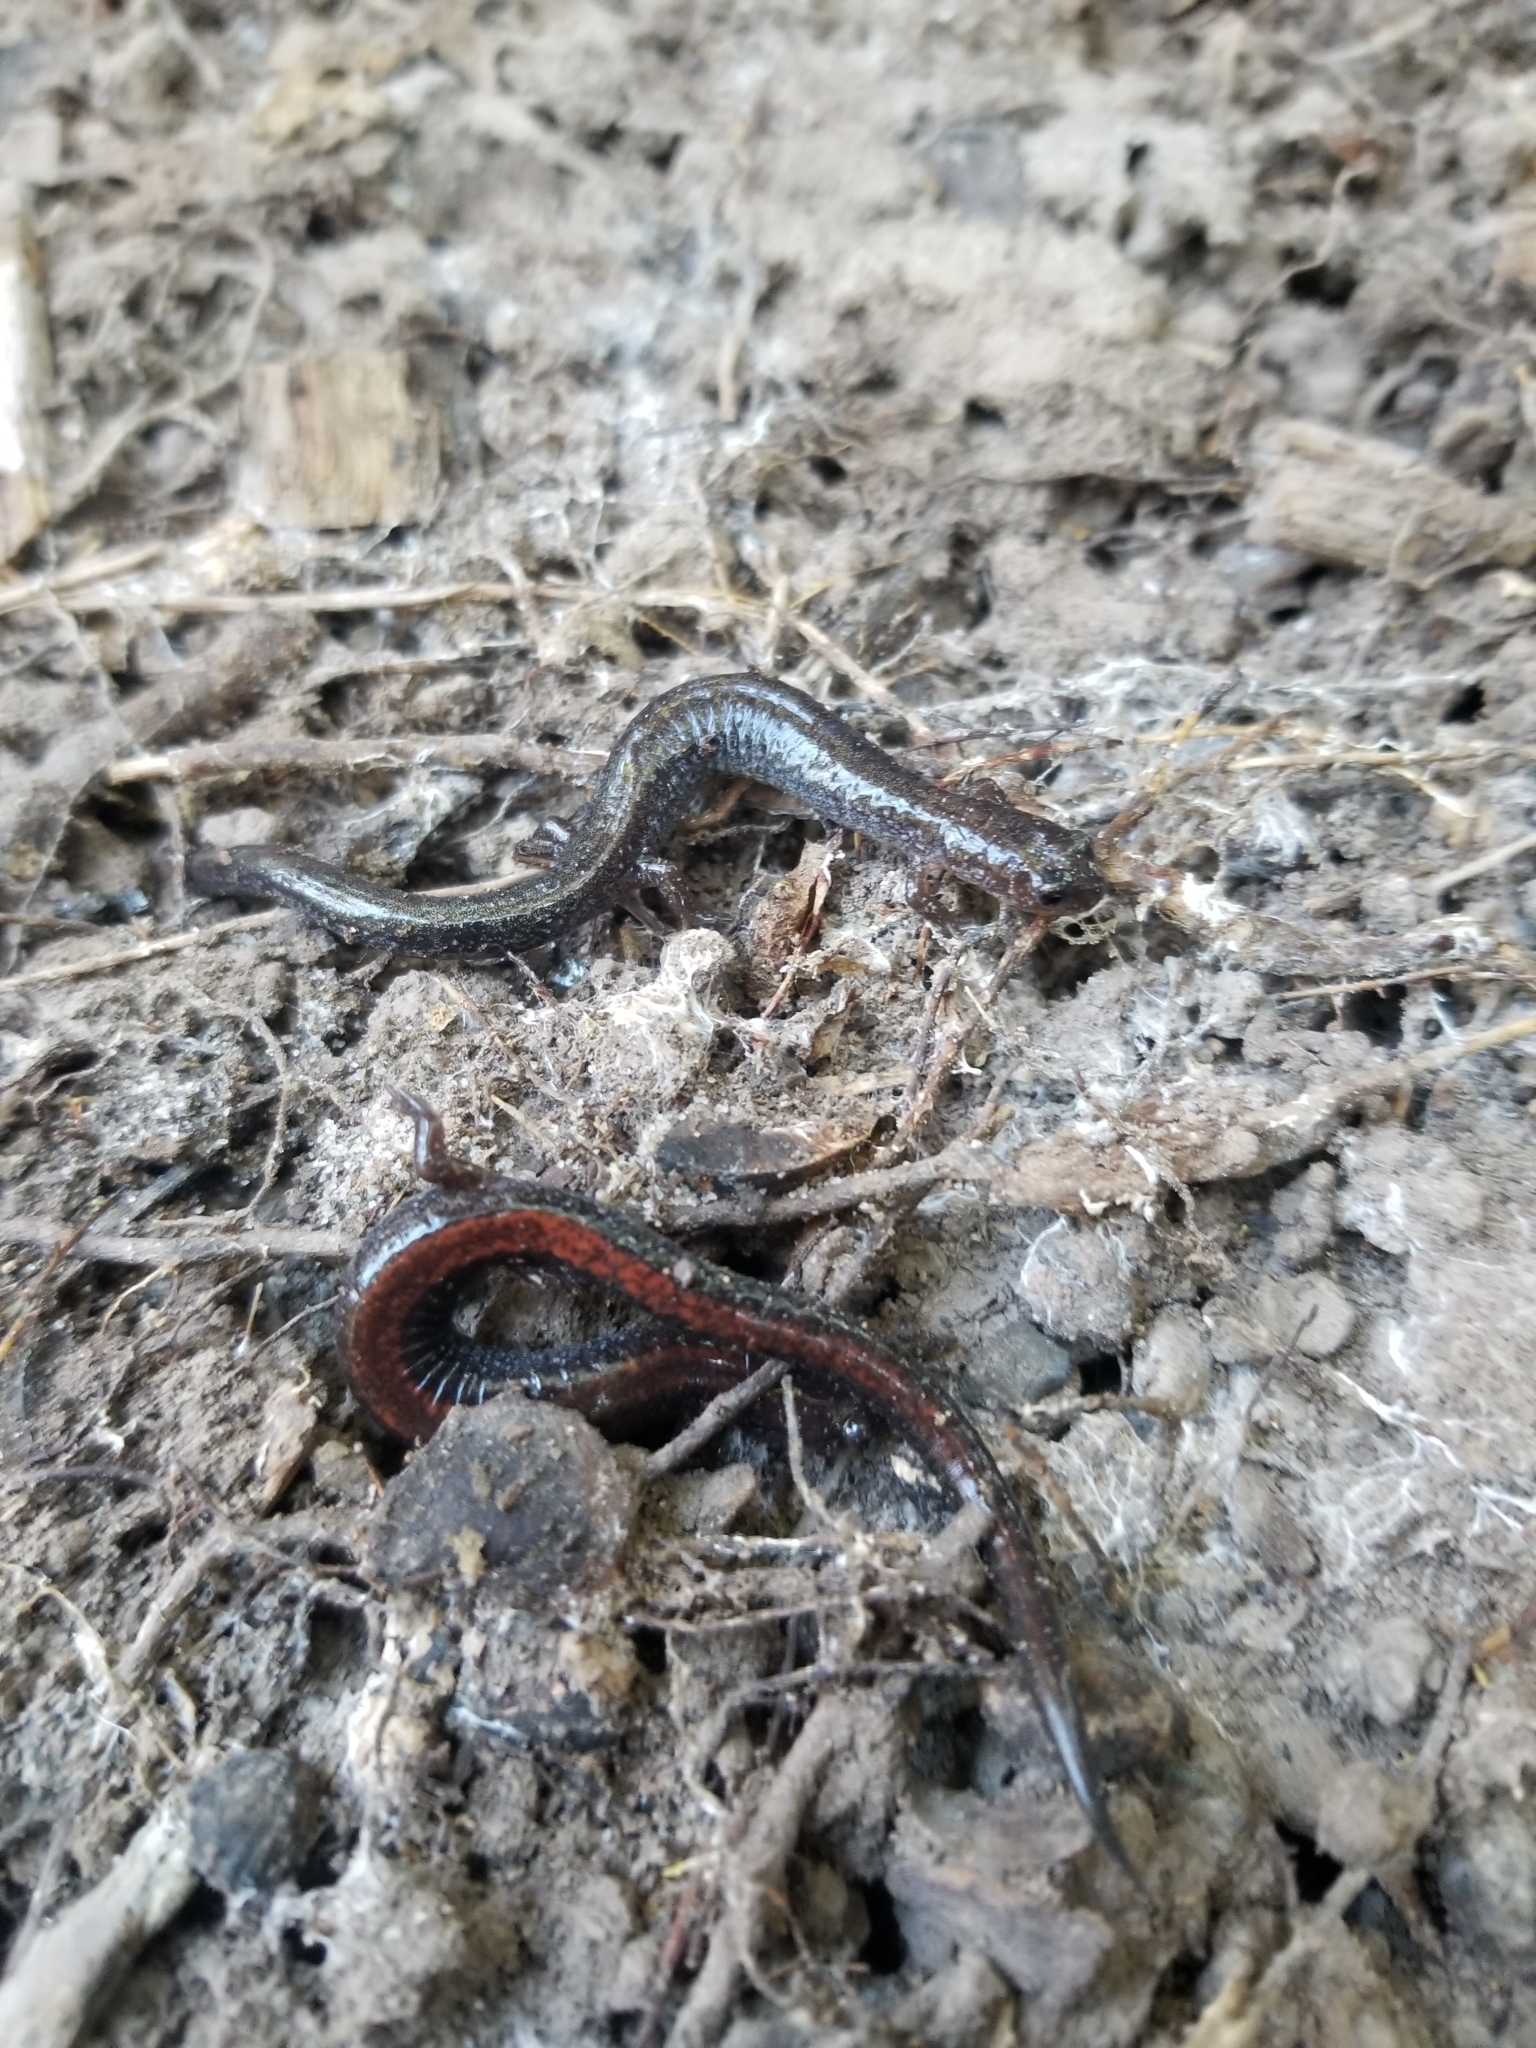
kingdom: Animalia
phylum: Chordata
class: Amphibia
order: Caudata
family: Plethodontidae
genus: Plethodon
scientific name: Plethodon cinereus
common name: Redback salamander
